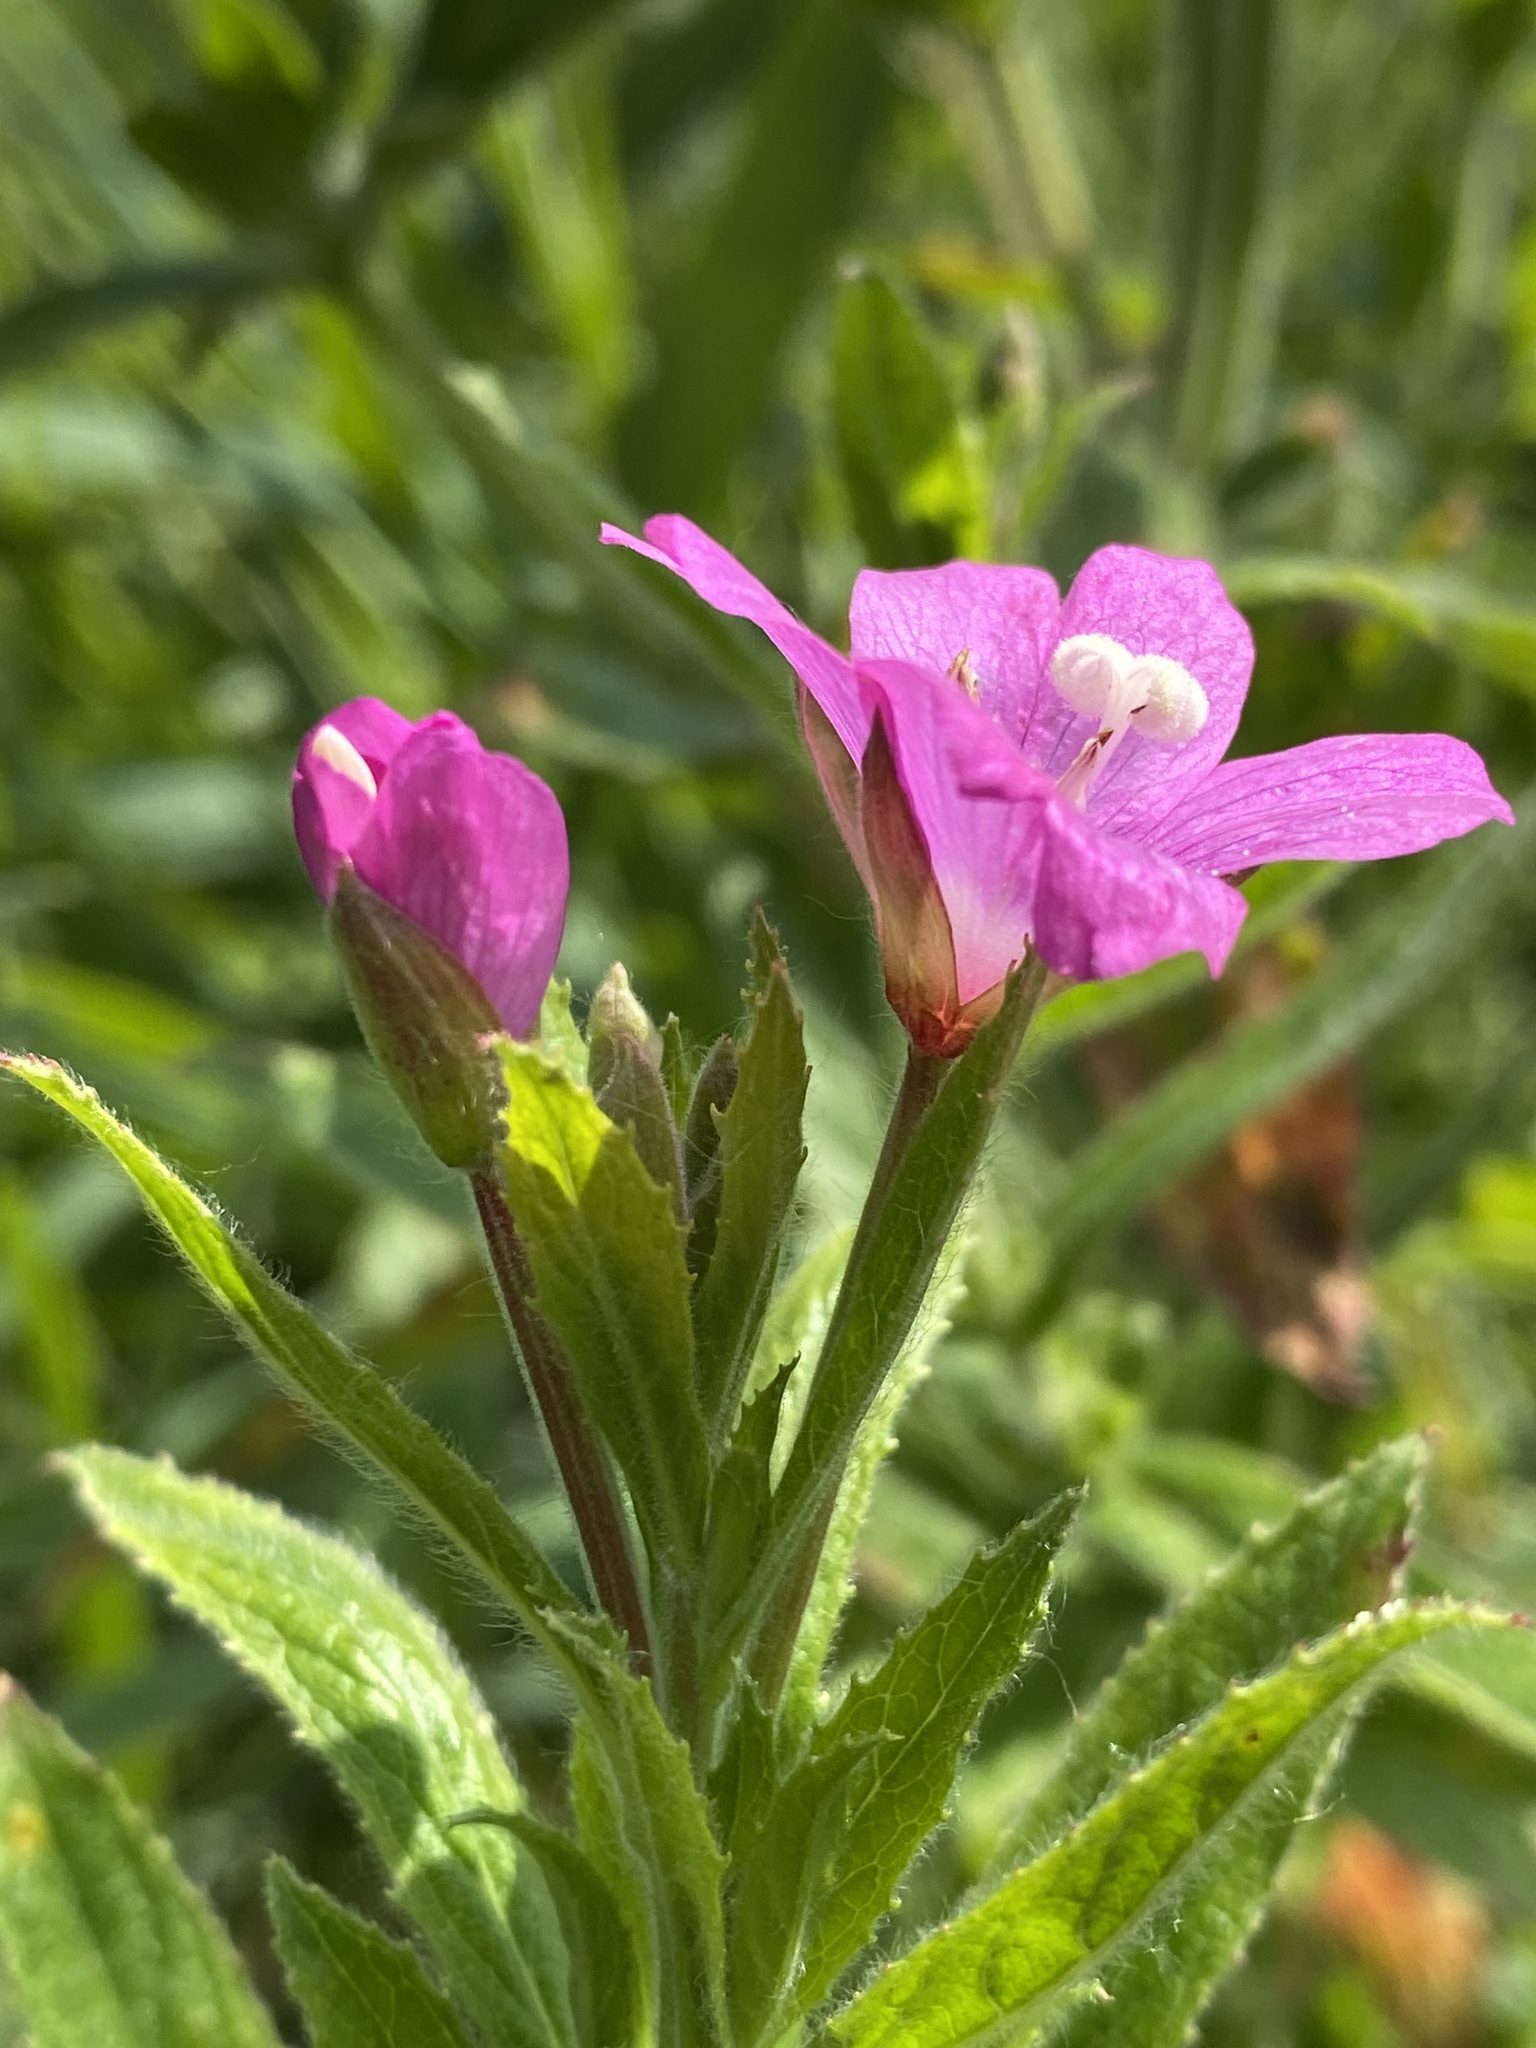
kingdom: Plantae
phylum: Tracheophyta
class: Magnoliopsida
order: Myrtales
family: Onagraceae
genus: Epilobium
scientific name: Epilobium hirsutum
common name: Great willowherb
